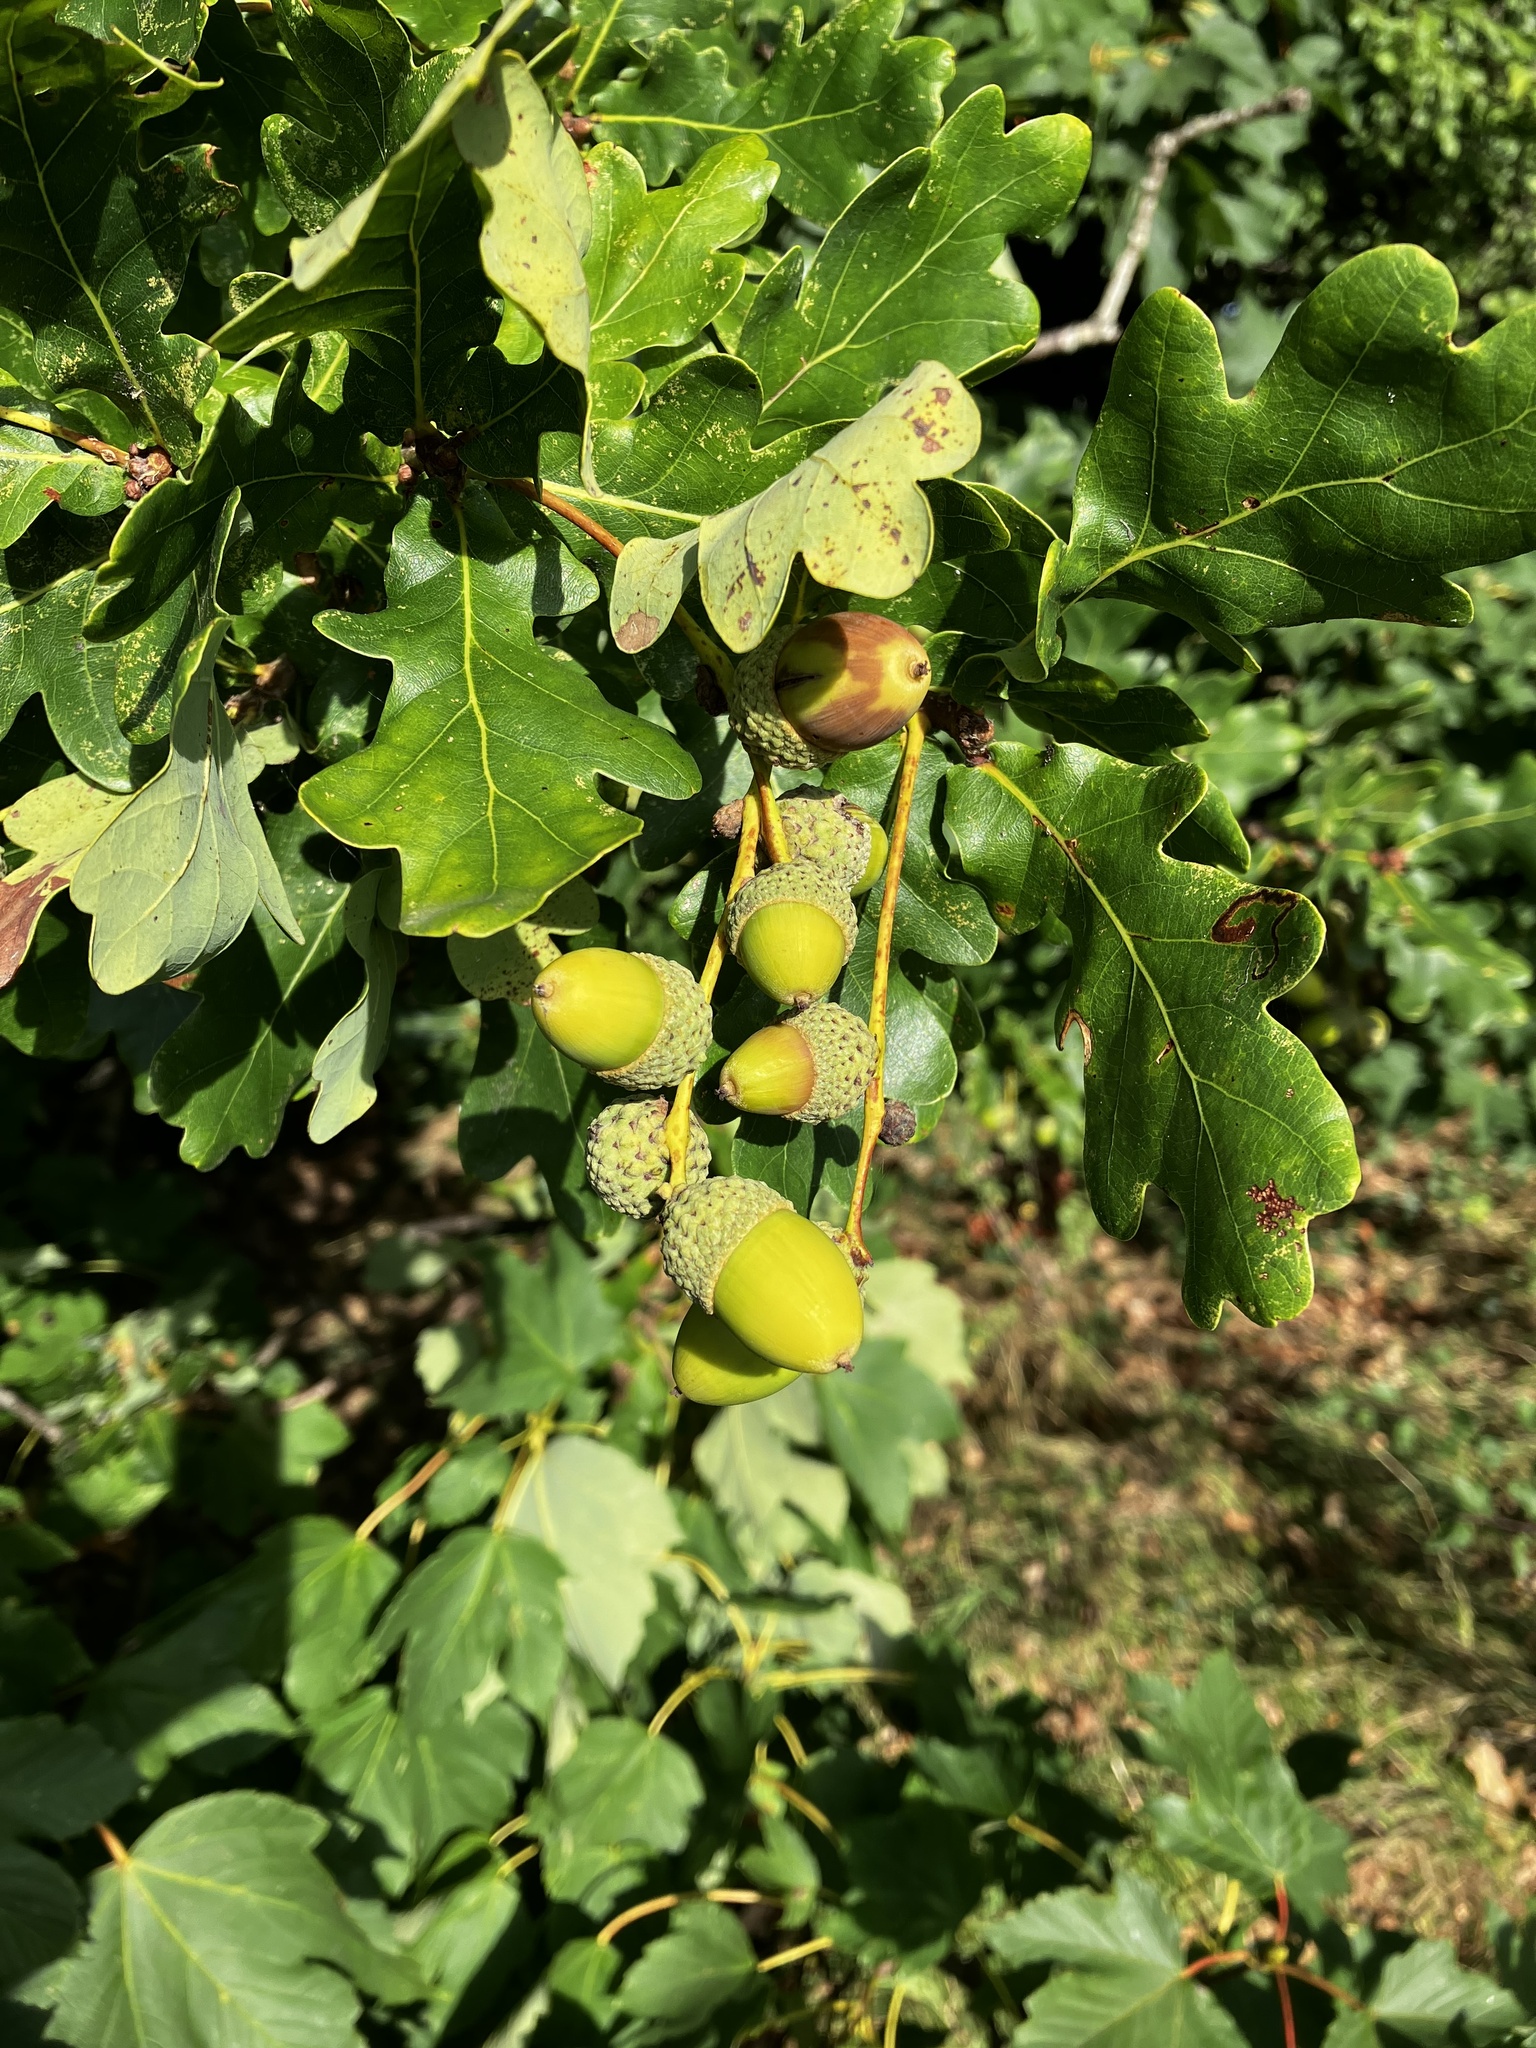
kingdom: Plantae
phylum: Tracheophyta
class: Magnoliopsida
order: Fagales
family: Fagaceae
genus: Quercus
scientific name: Quercus robur
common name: Pedunculate oak
